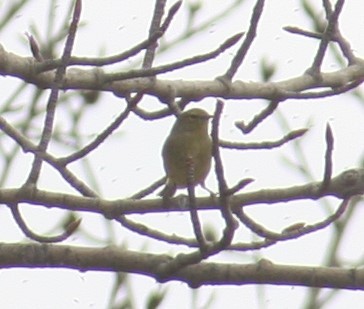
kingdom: Animalia
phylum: Chordata
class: Aves
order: Passeriformes
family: Parulidae
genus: Leiothlypis
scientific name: Leiothlypis celata
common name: Orange-crowned warbler
